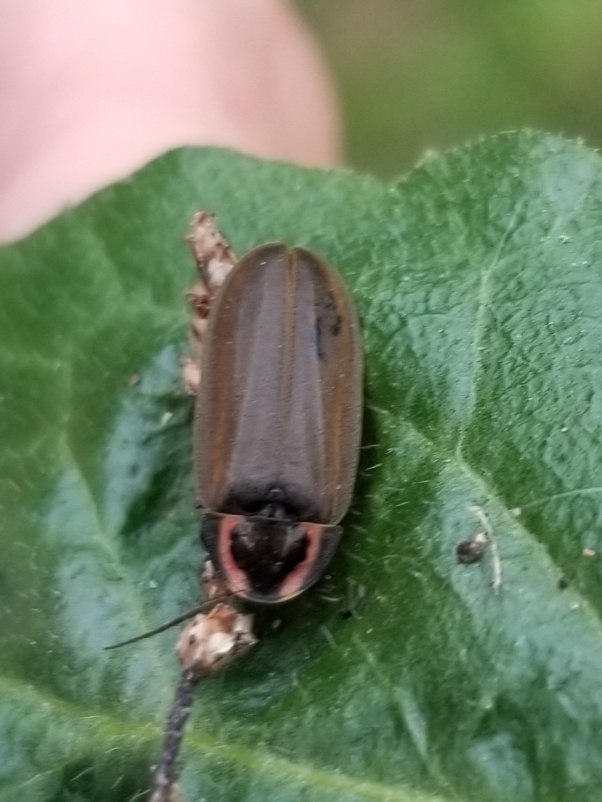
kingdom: Animalia
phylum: Arthropoda
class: Insecta
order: Coleoptera
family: Lampyridae
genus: Photinus
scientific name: Photinus corrusca
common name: Winter firefly
